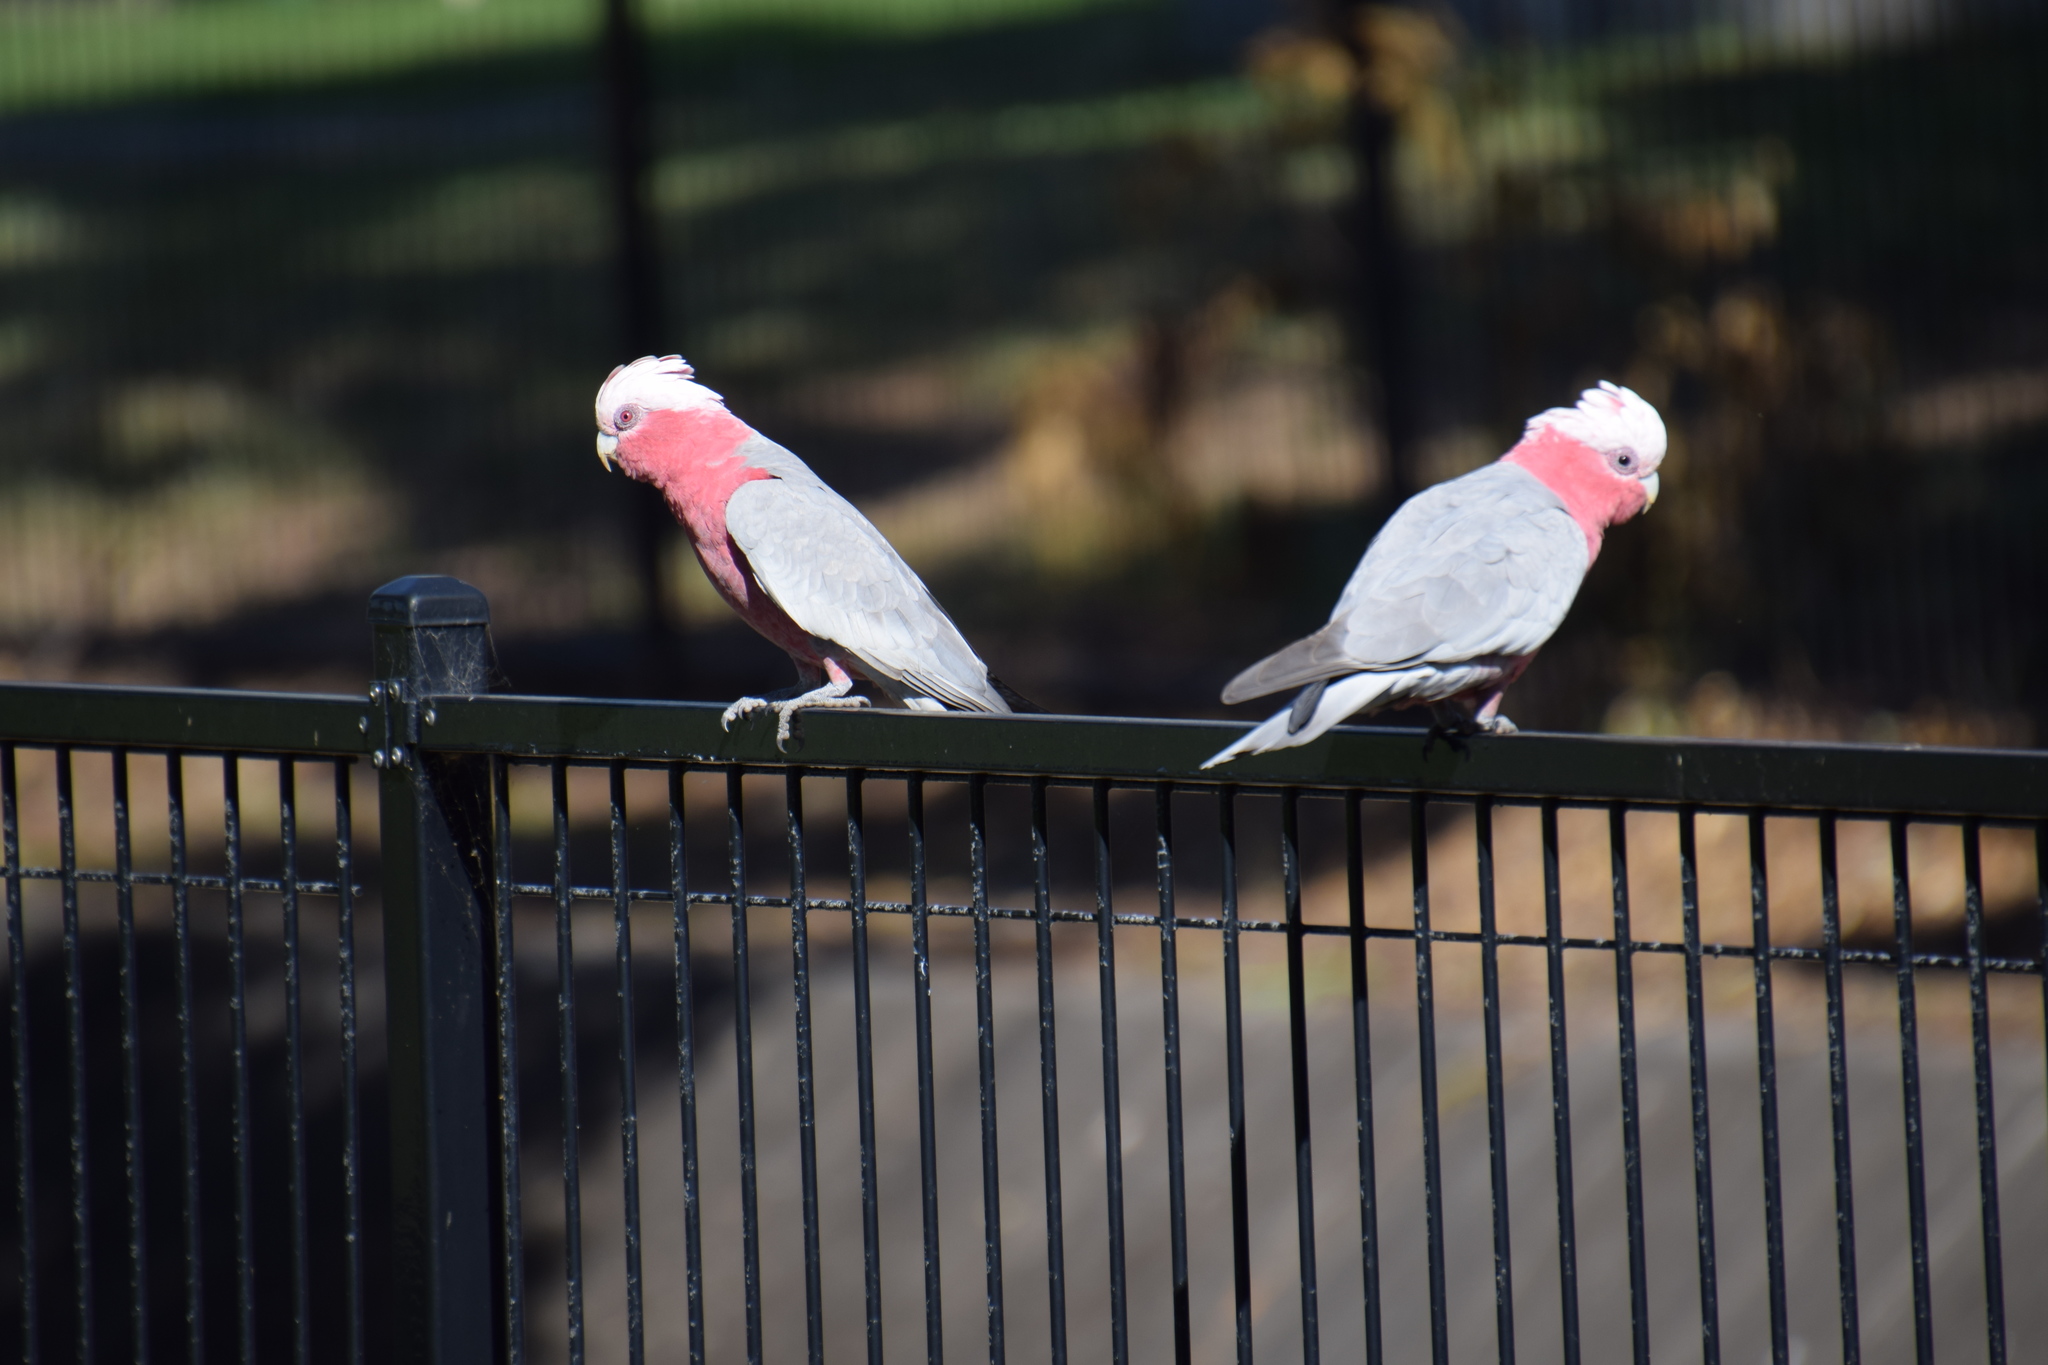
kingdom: Animalia
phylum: Chordata
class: Aves
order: Psittaciformes
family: Psittacidae
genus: Eolophus
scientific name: Eolophus roseicapilla
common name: Galah
